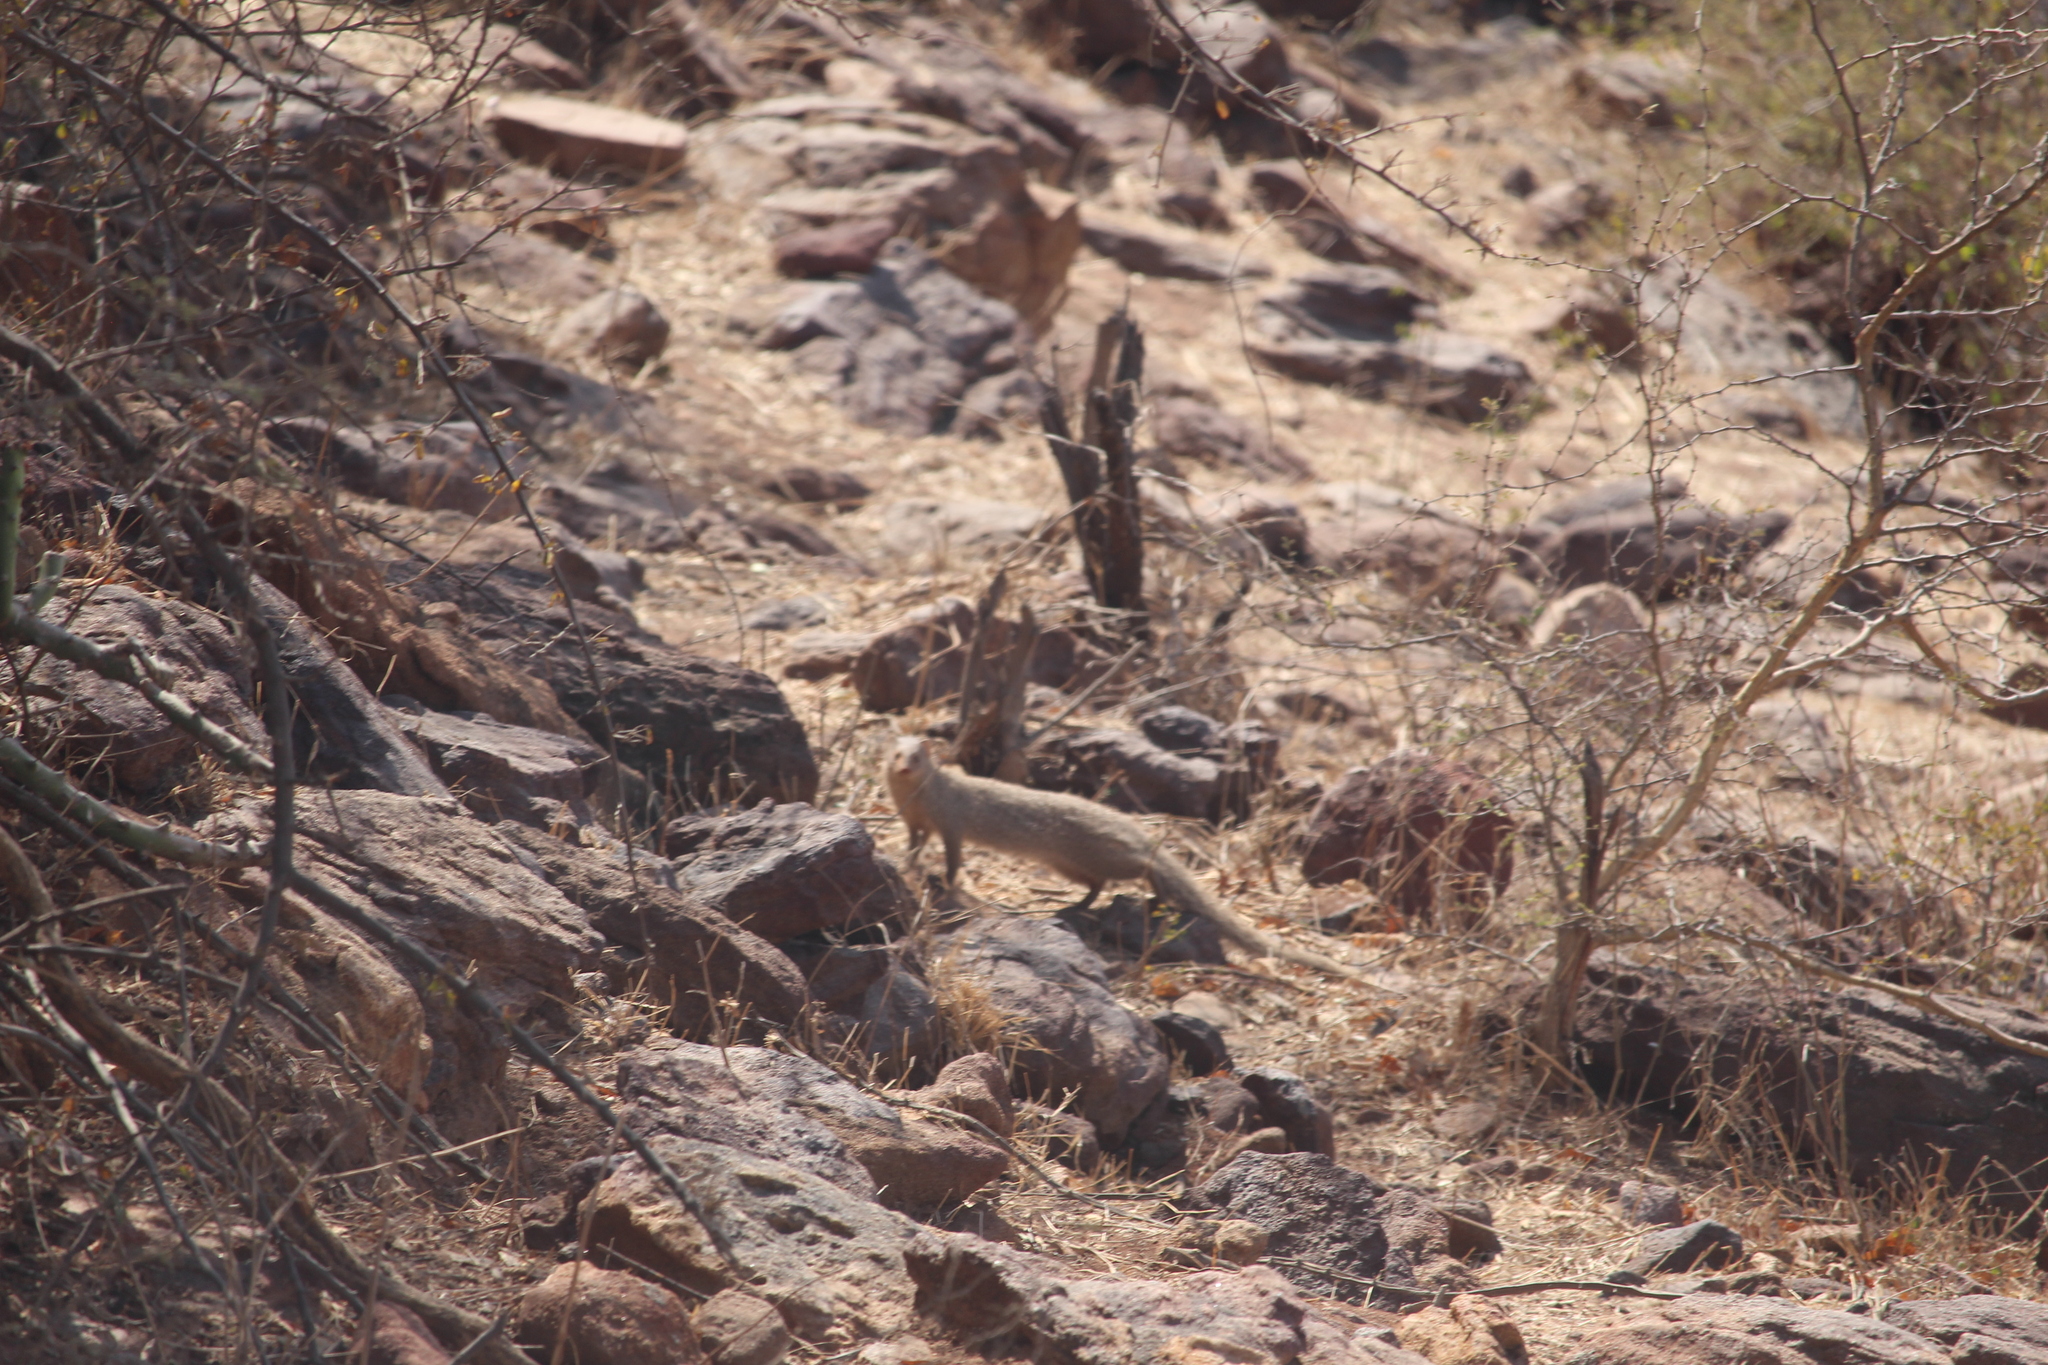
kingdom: Animalia
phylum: Chordata
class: Mammalia
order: Carnivora
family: Herpestidae
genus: Herpestes
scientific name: Herpestes edwardsi
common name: Indian gray mongoose
